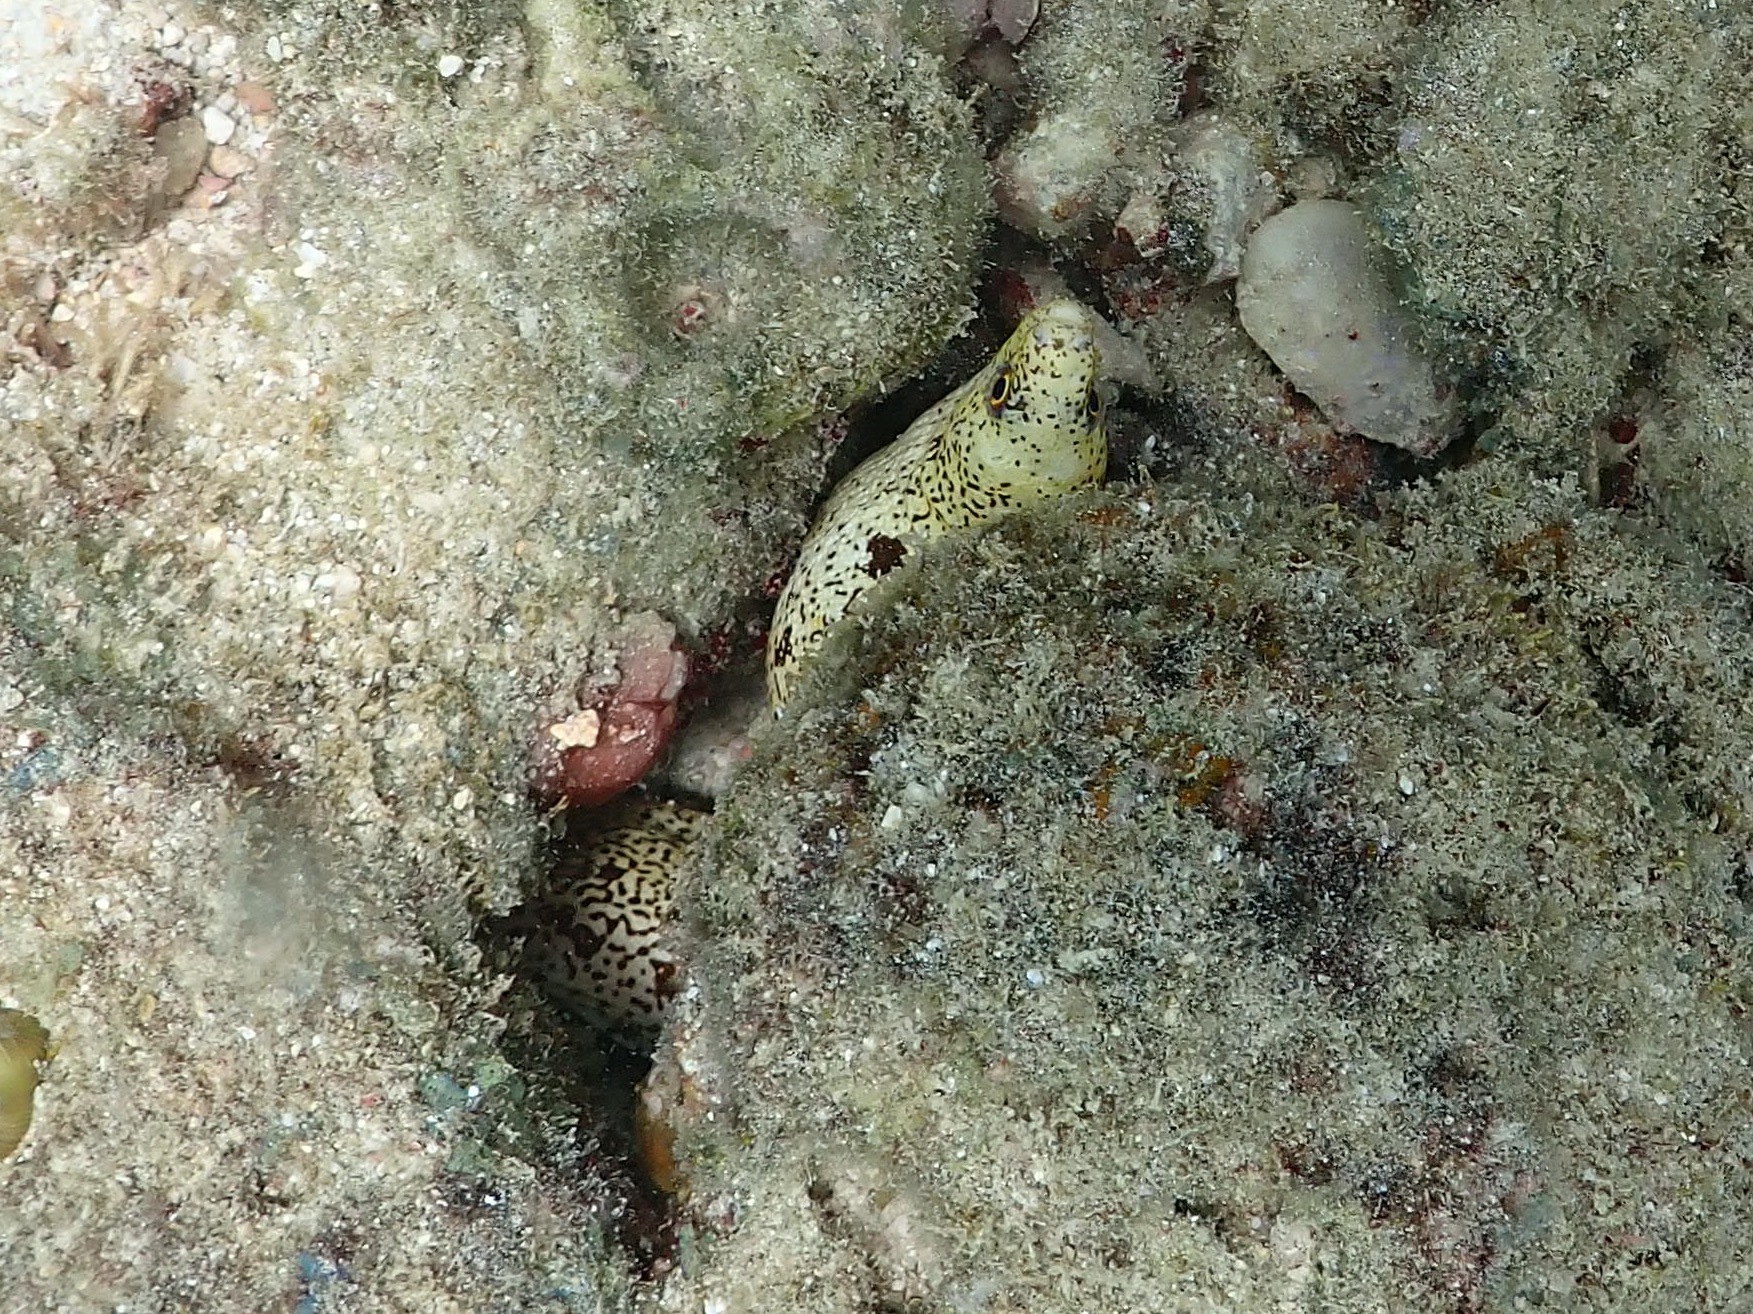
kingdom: Animalia
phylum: Chordata
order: Anguilliformes
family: Muraenidae
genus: Gymnothorax
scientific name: Gymnothorax moringa
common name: Spotted moray
